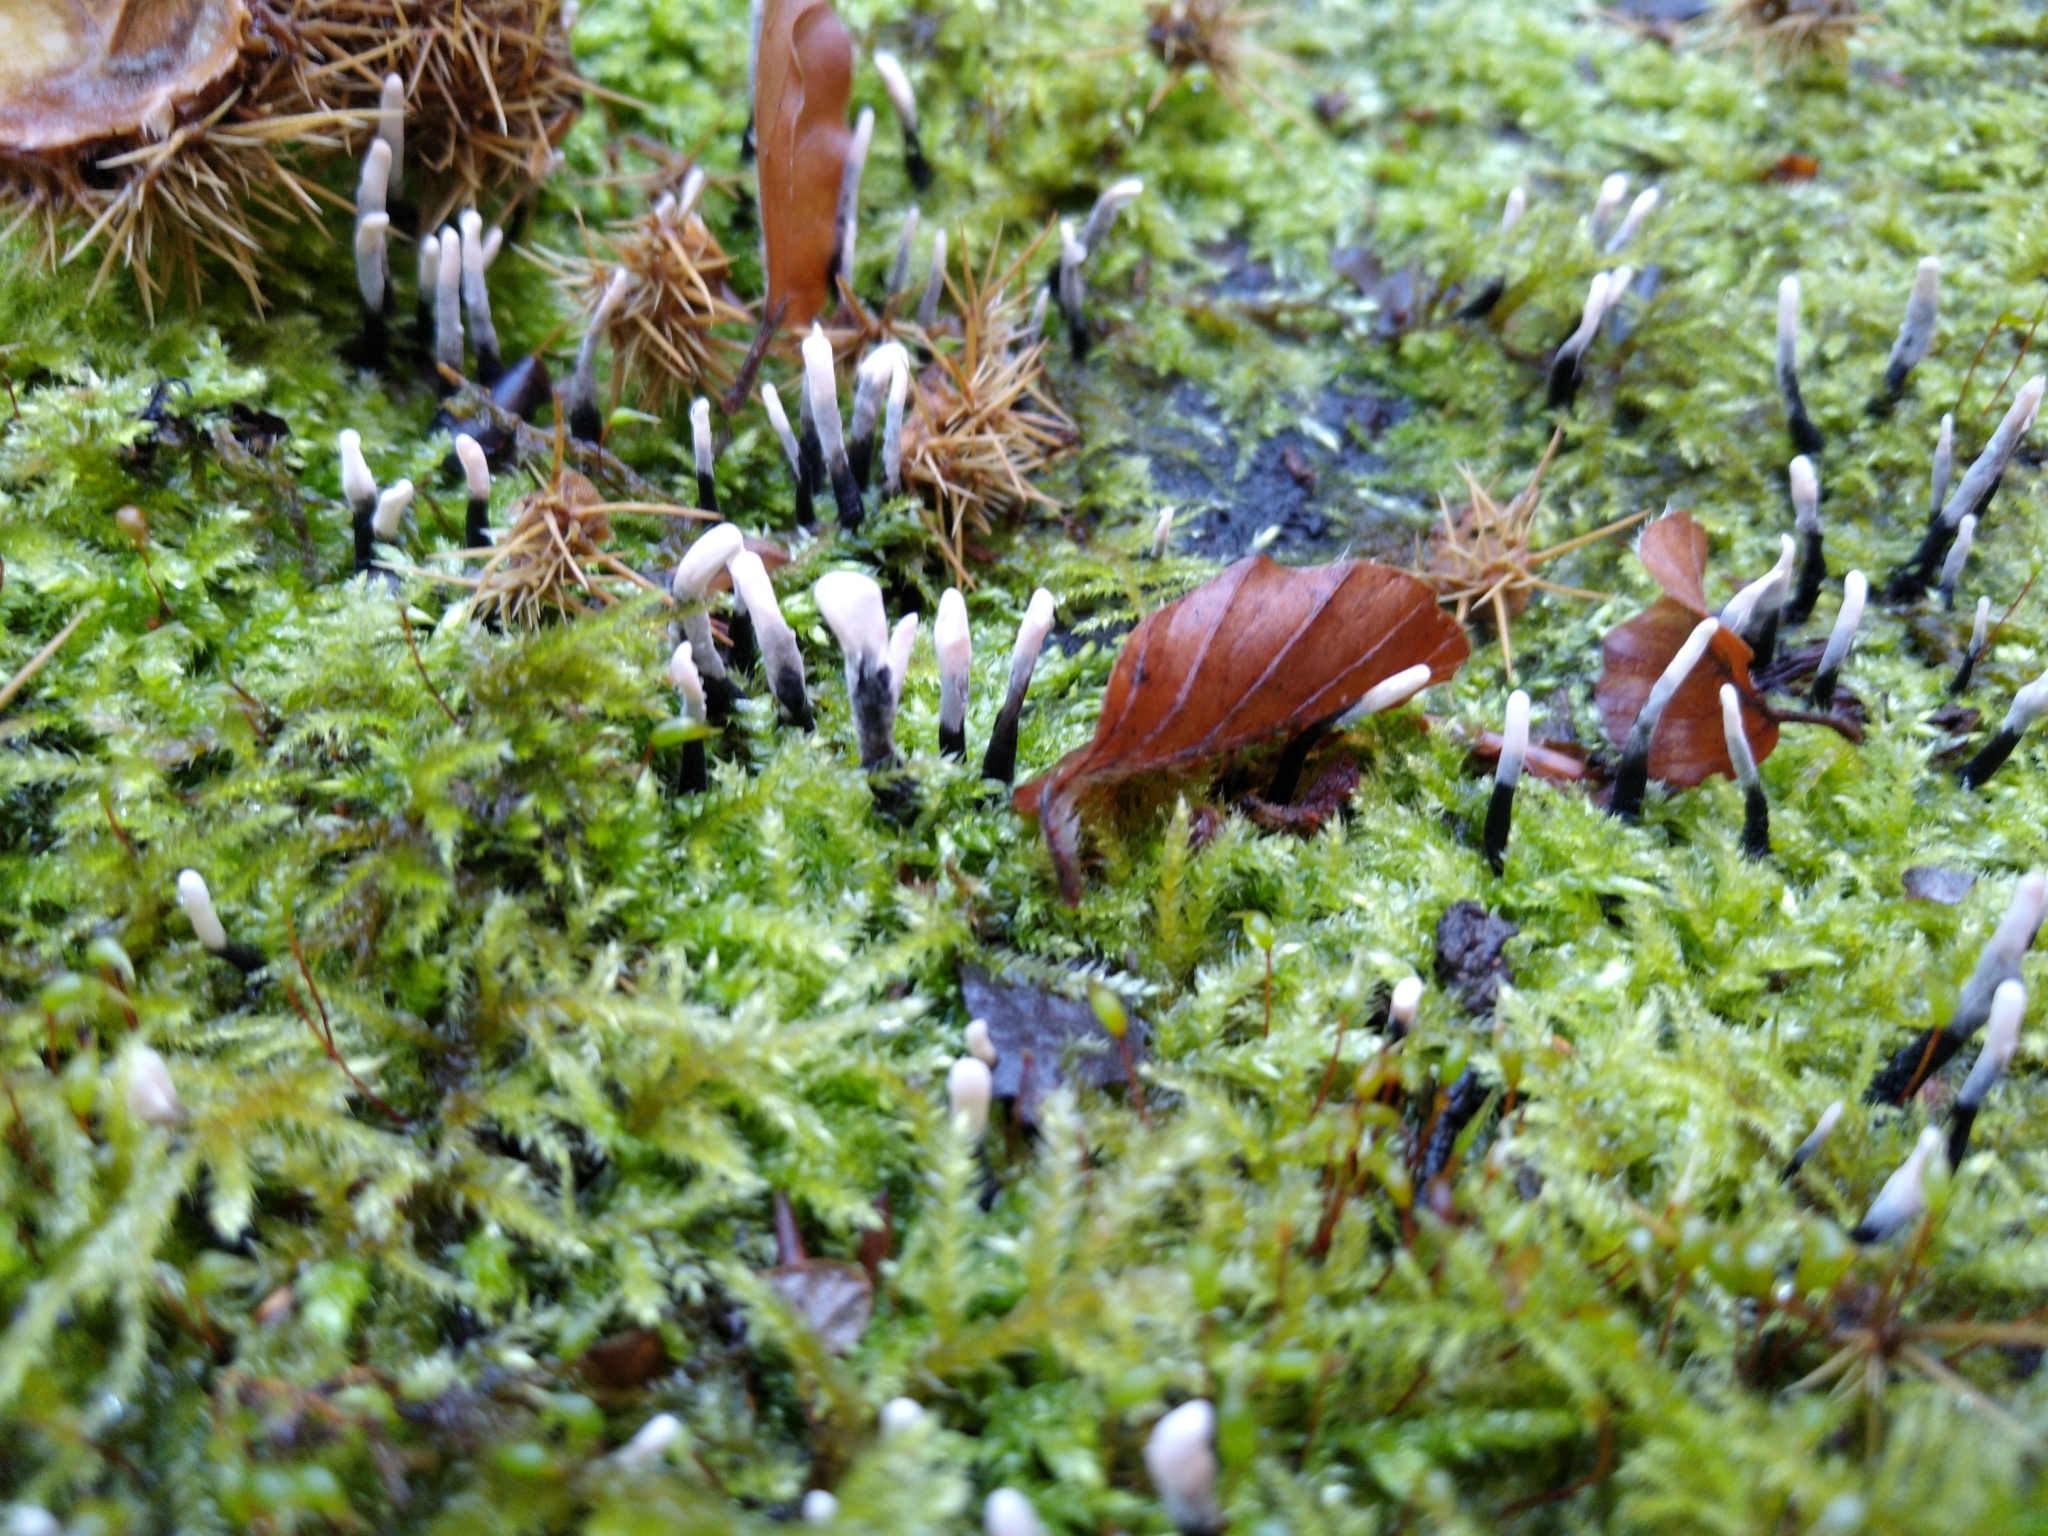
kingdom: Fungi
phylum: Ascomycota
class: Sordariomycetes
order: Xylariales
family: Xylariaceae
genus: Xylaria
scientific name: Xylaria hypoxylon
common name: Candle-snuff fungus
